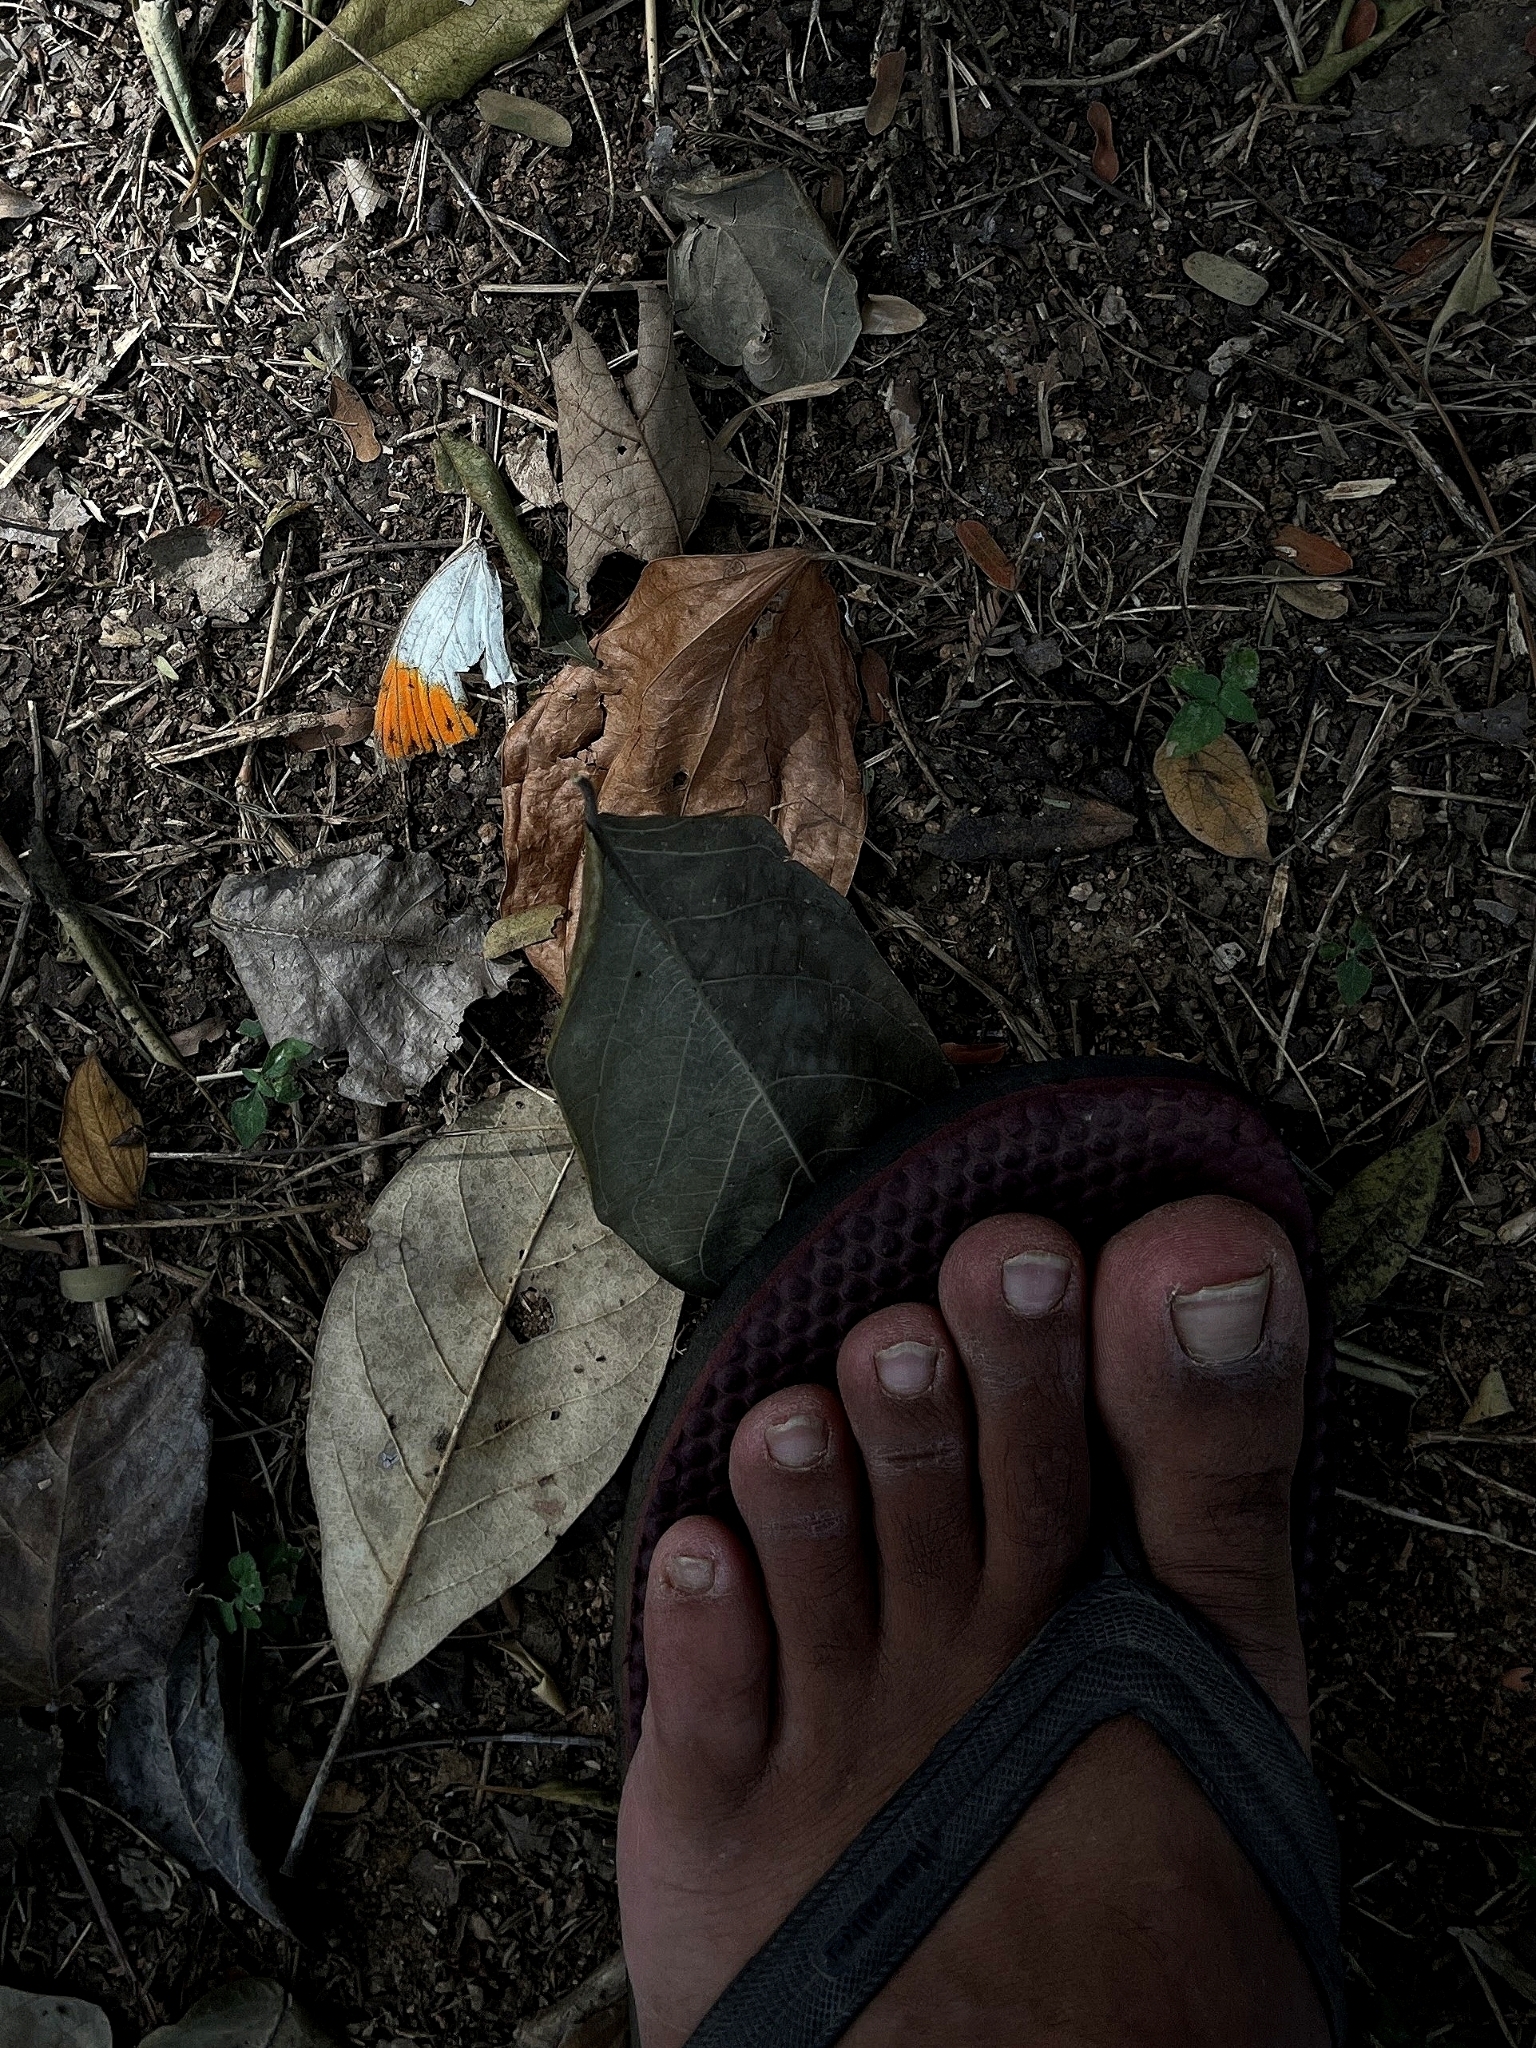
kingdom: Animalia
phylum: Arthropoda
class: Insecta
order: Lepidoptera
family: Pieridae
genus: Hebomoia
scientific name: Hebomoia glaucippe
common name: Great orange tip
